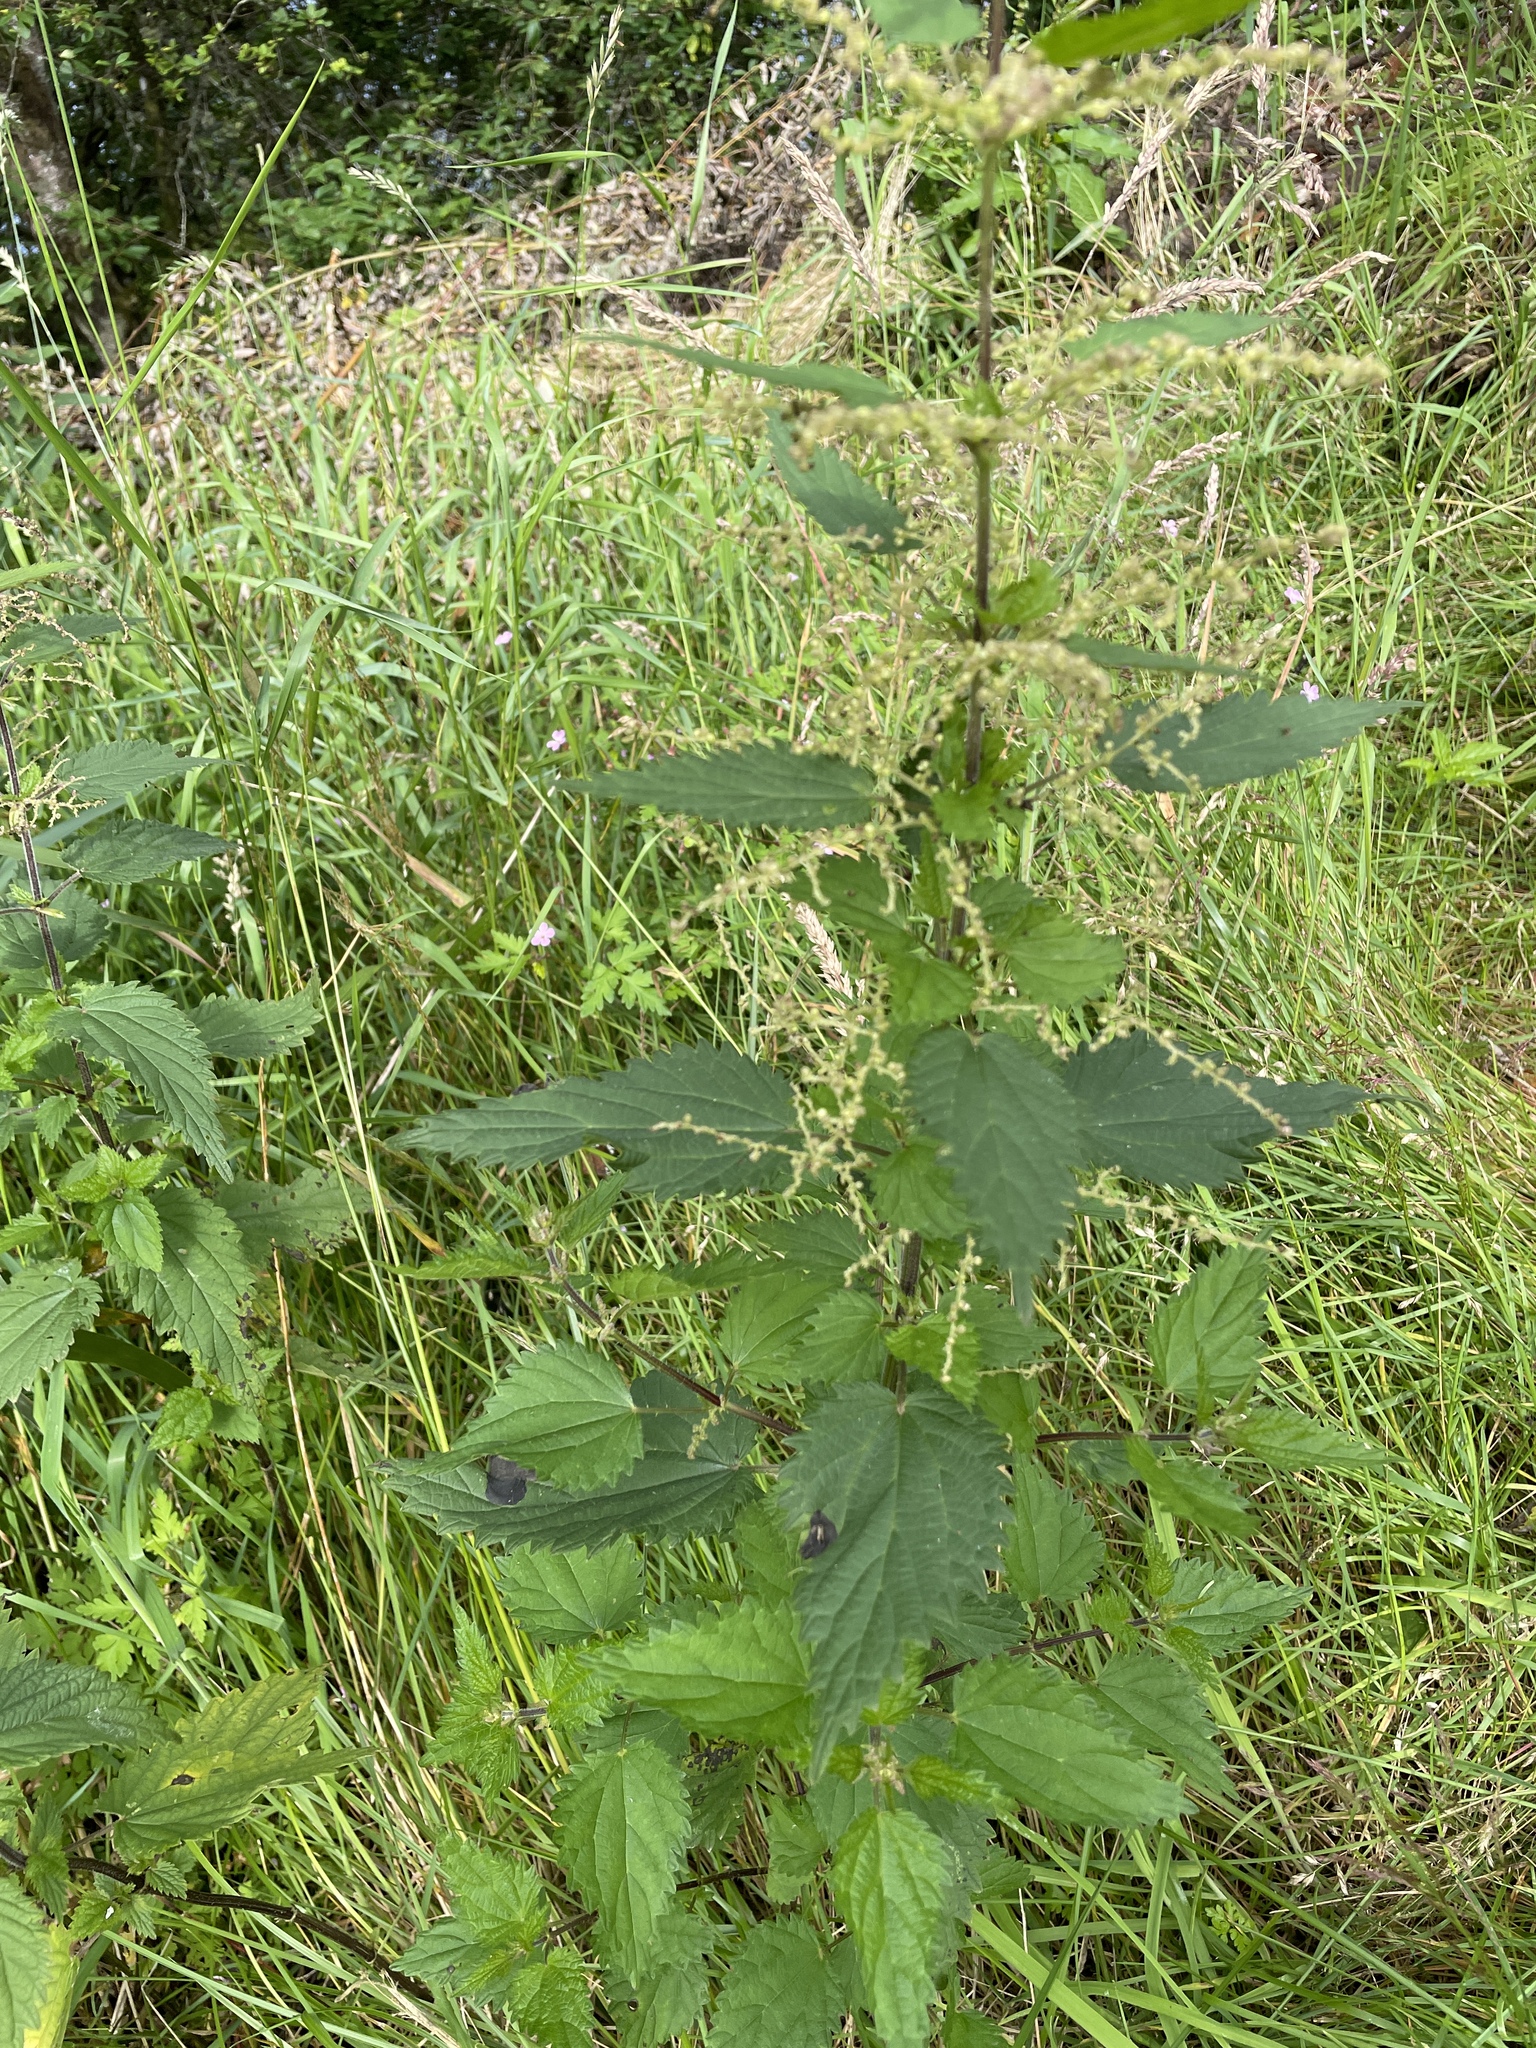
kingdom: Plantae
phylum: Tracheophyta
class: Magnoliopsida
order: Rosales
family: Urticaceae
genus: Urtica
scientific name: Urtica dioica
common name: Common nettle
